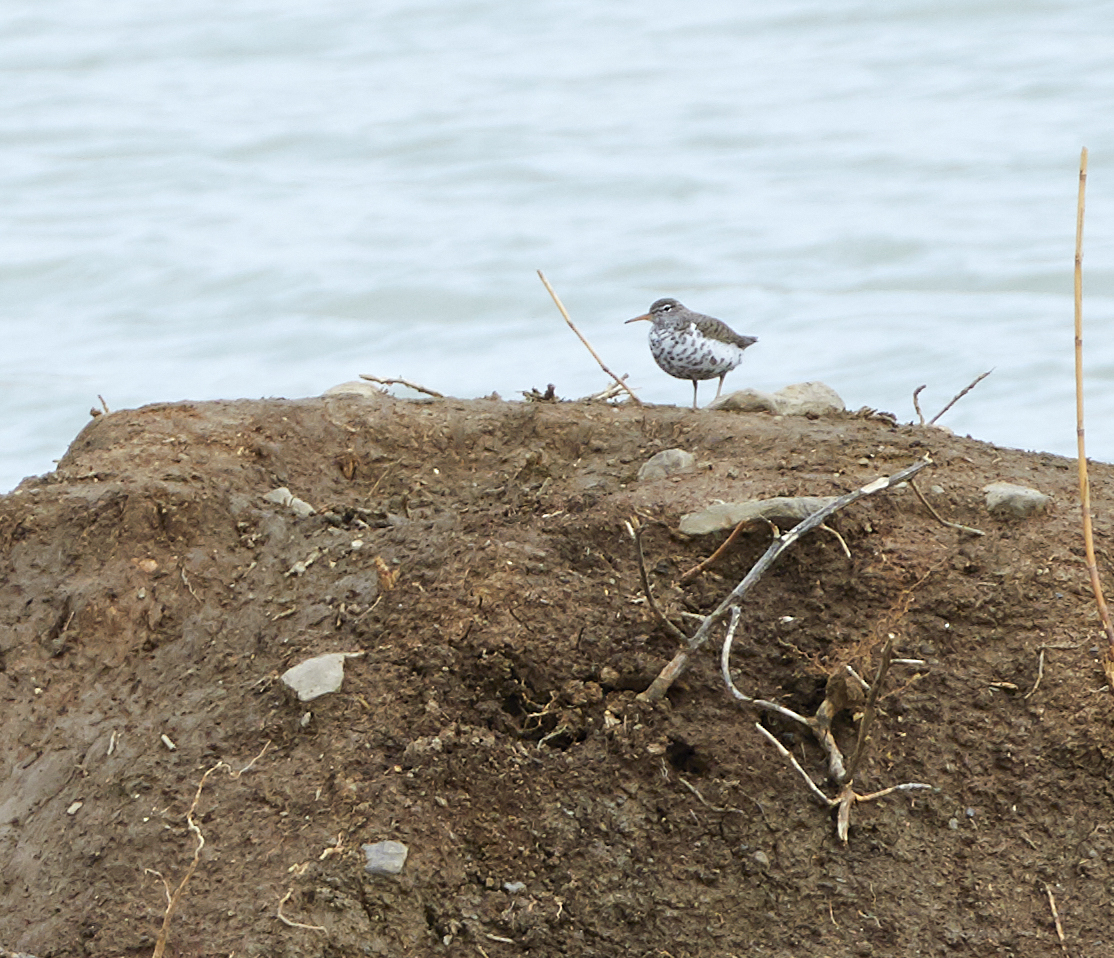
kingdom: Animalia
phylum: Chordata
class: Aves
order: Charadriiformes
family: Scolopacidae
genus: Actitis
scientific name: Actitis macularius
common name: Spotted sandpiper
